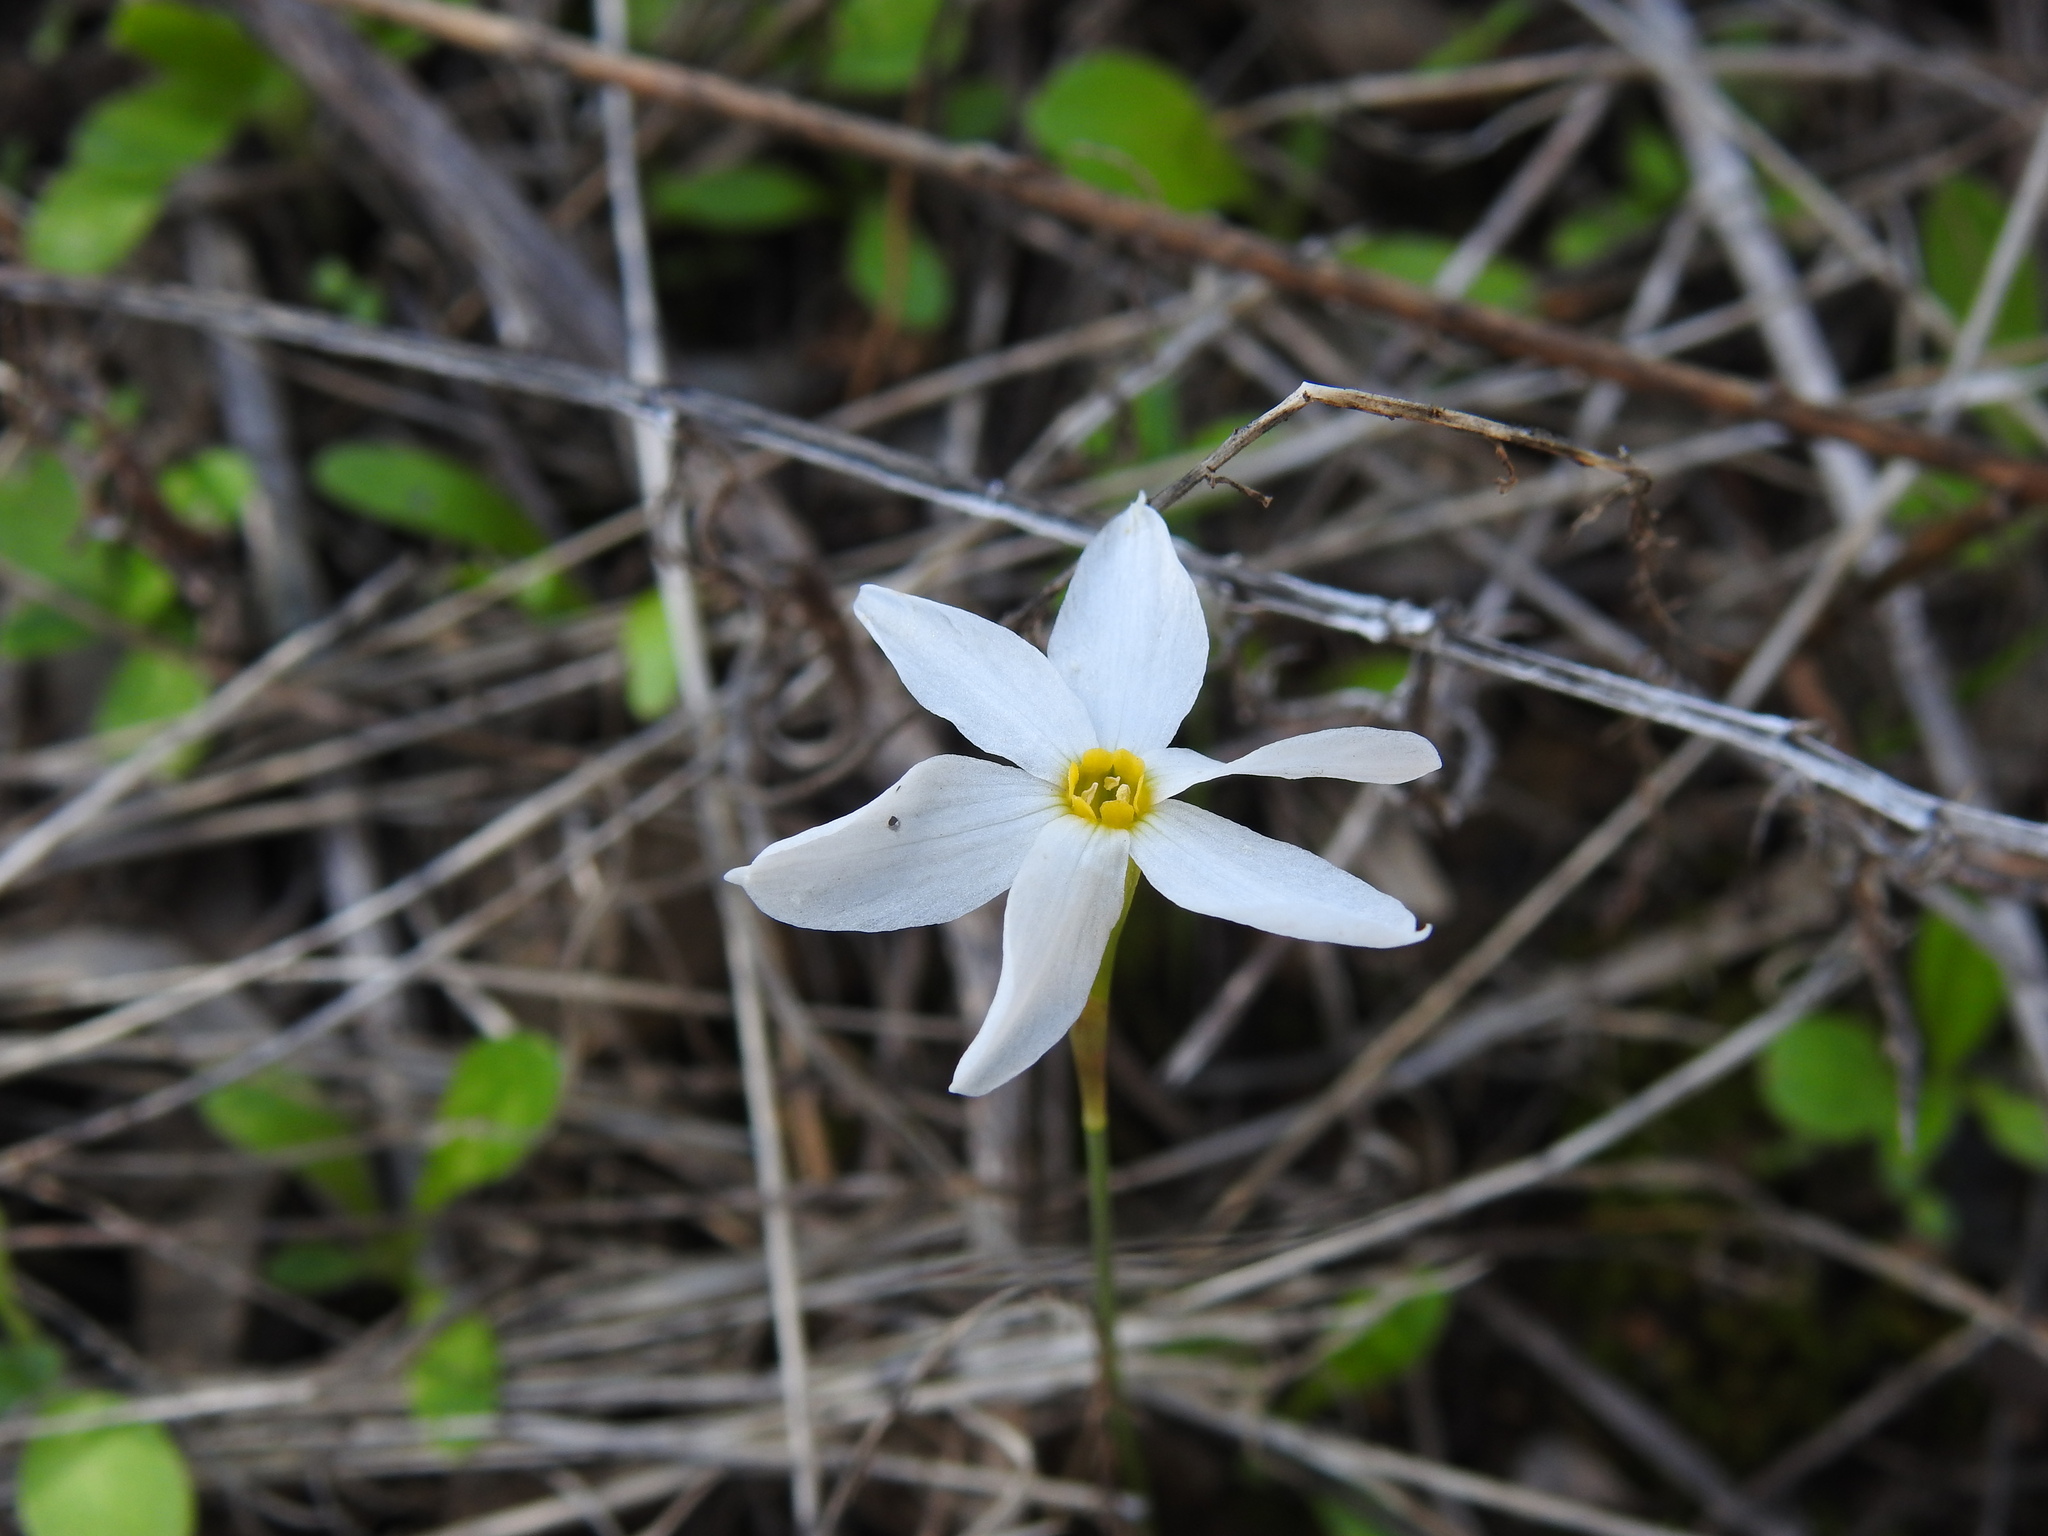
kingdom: Plantae
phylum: Tracheophyta
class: Liliopsida
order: Asparagales
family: Amaryllidaceae
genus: Narcissus
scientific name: Narcissus serotinus
